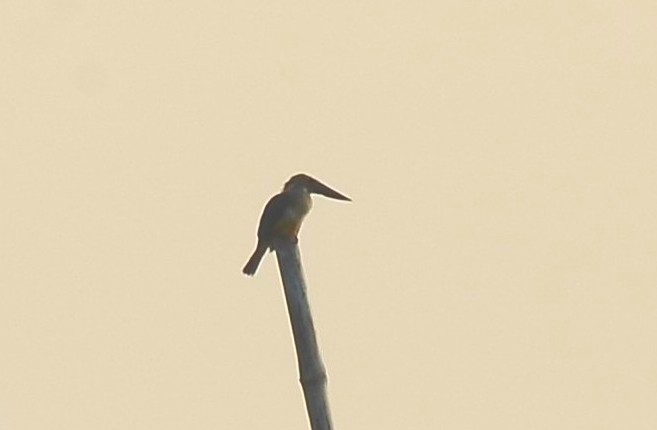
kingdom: Animalia
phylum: Chordata
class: Aves
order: Coraciiformes
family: Alcedinidae
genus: Pelargopsis
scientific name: Pelargopsis capensis
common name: Stork-billed kingfisher
